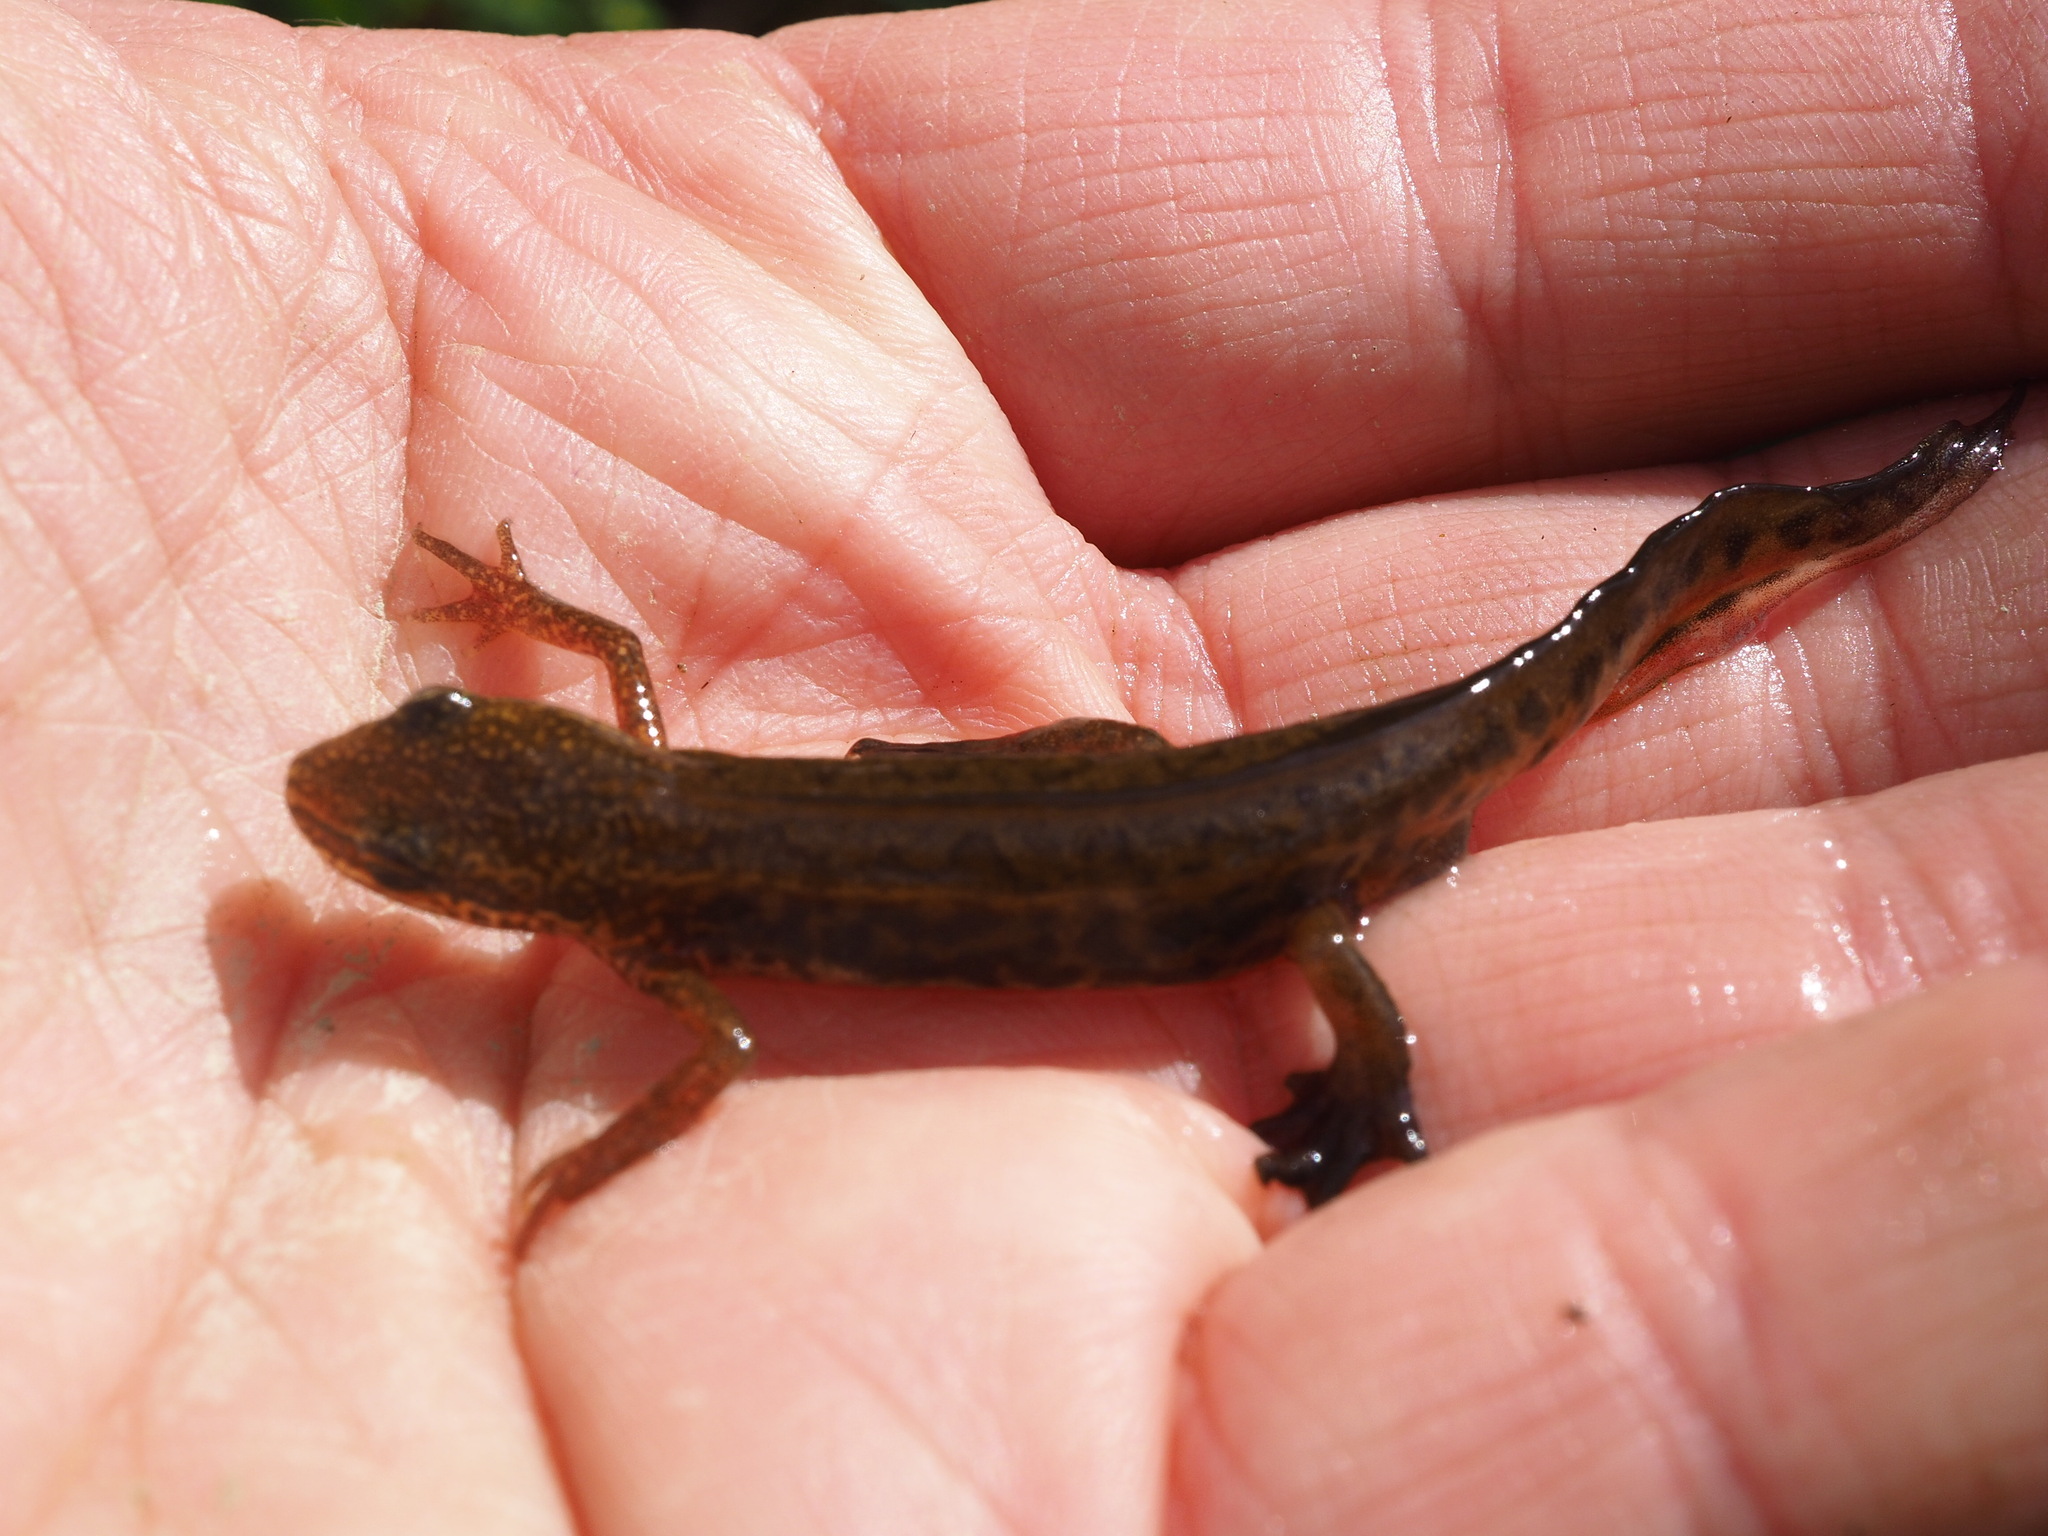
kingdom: Animalia
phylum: Chordata
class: Amphibia
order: Caudata
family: Salamandridae
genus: Lissotriton
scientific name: Lissotriton helveticus
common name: Palmate newt
